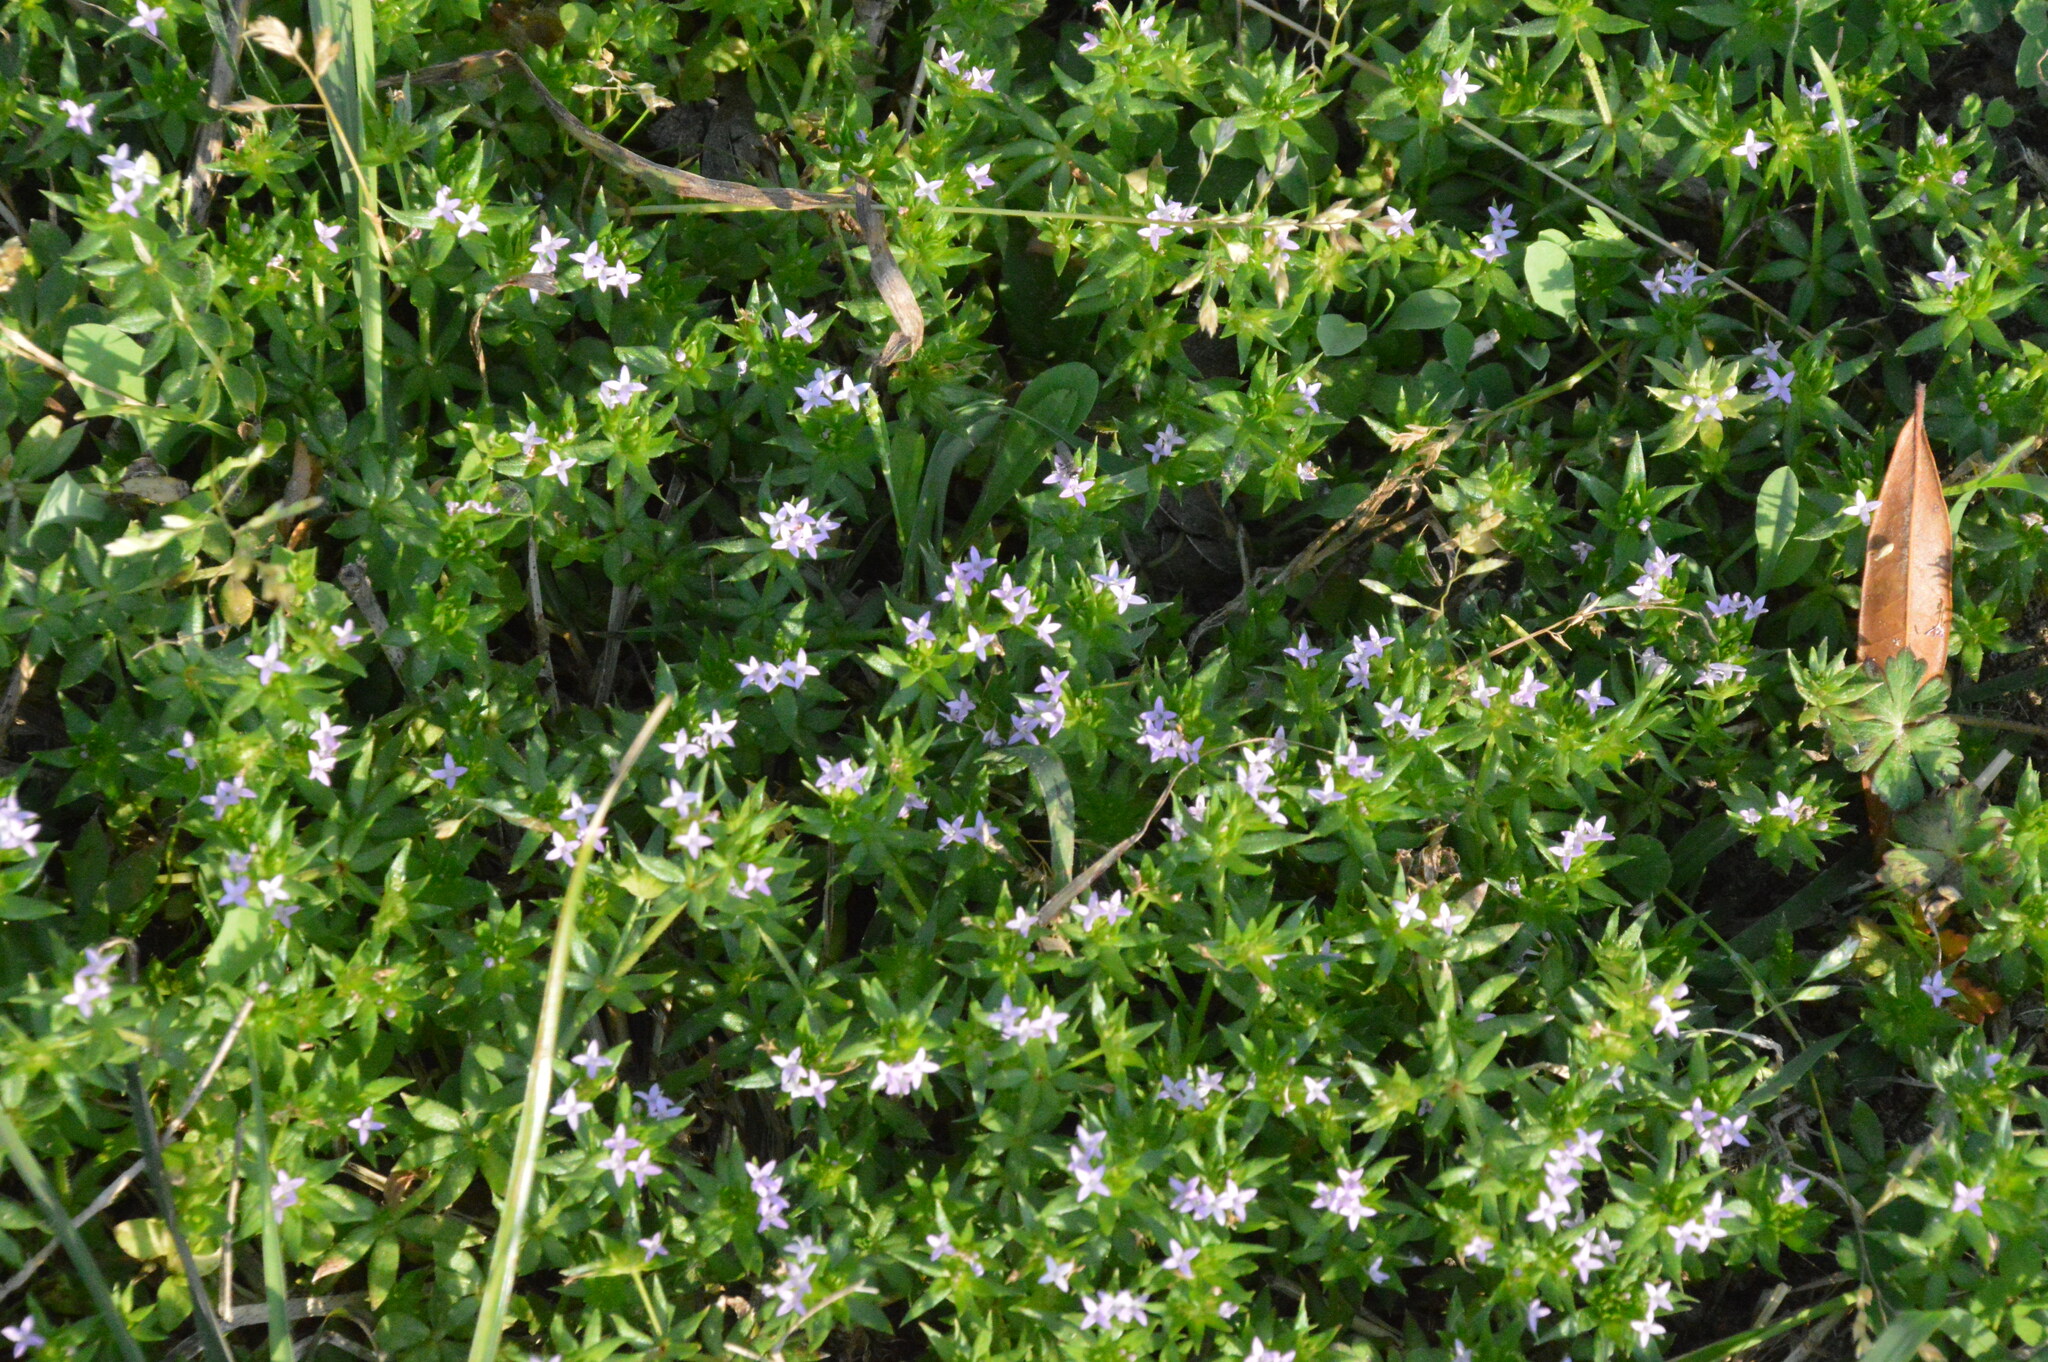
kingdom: Plantae
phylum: Tracheophyta
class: Magnoliopsida
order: Gentianales
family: Rubiaceae
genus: Sherardia
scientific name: Sherardia arvensis
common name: Field madder
